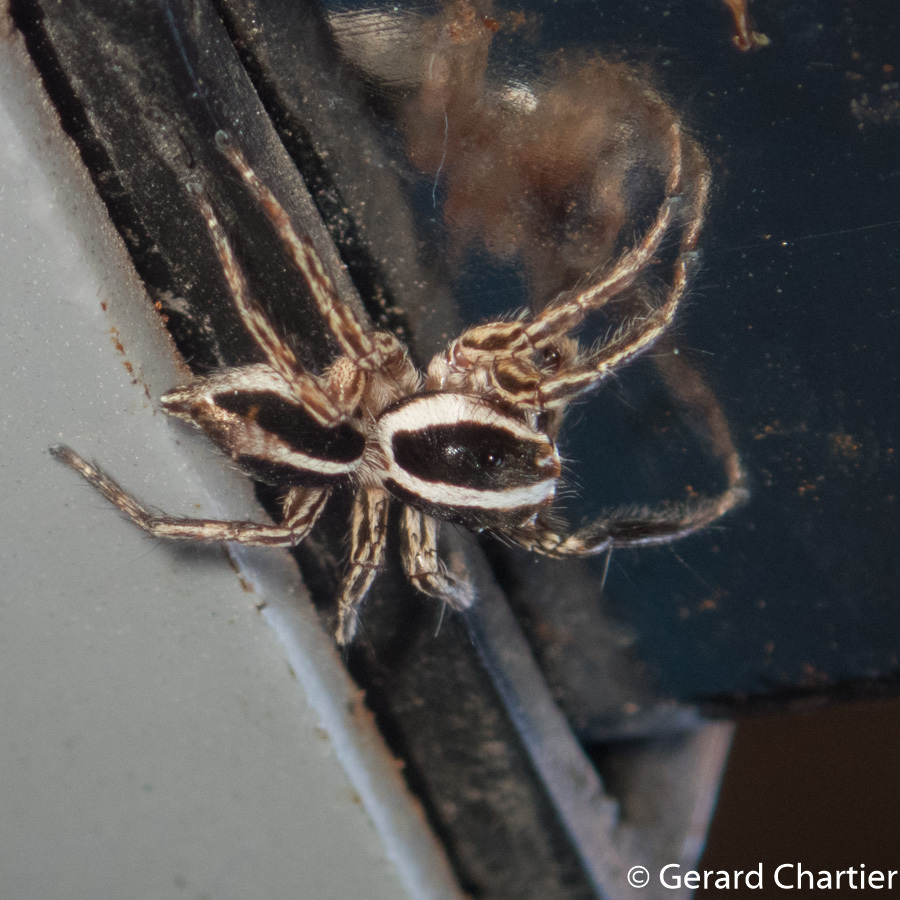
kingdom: Animalia
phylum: Arthropoda
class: Arachnida
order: Araneae
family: Salticidae
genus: Plexippus
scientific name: Plexippus paykulli
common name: Pantropical jumper
